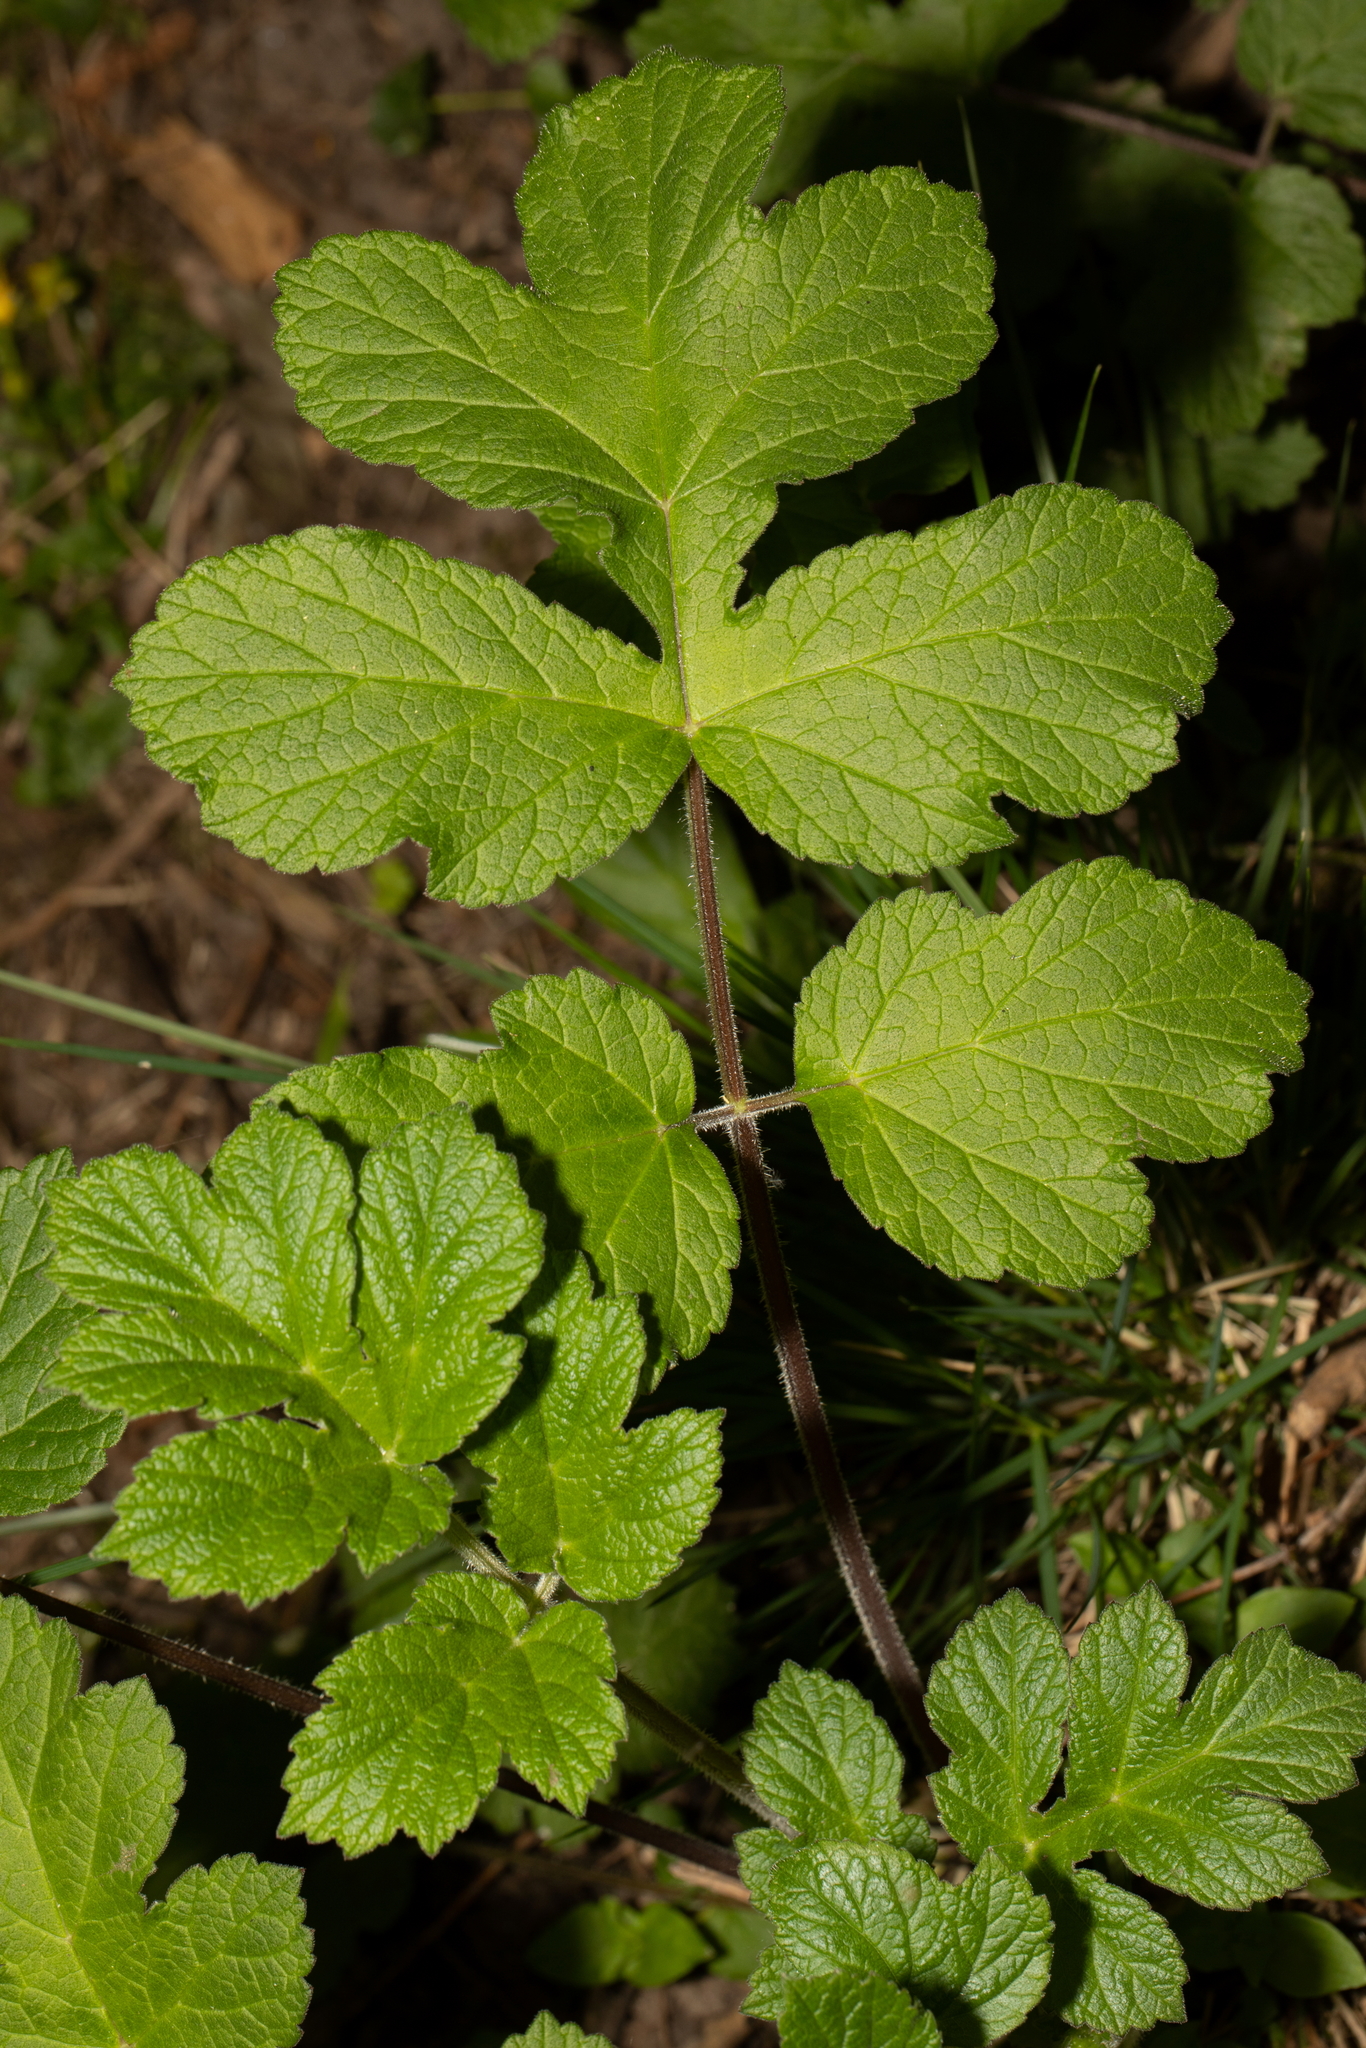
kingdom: Plantae
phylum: Tracheophyta
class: Magnoliopsida
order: Apiales
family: Apiaceae
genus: Heracleum
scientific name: Heracleum sphondylium
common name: Hogweed
